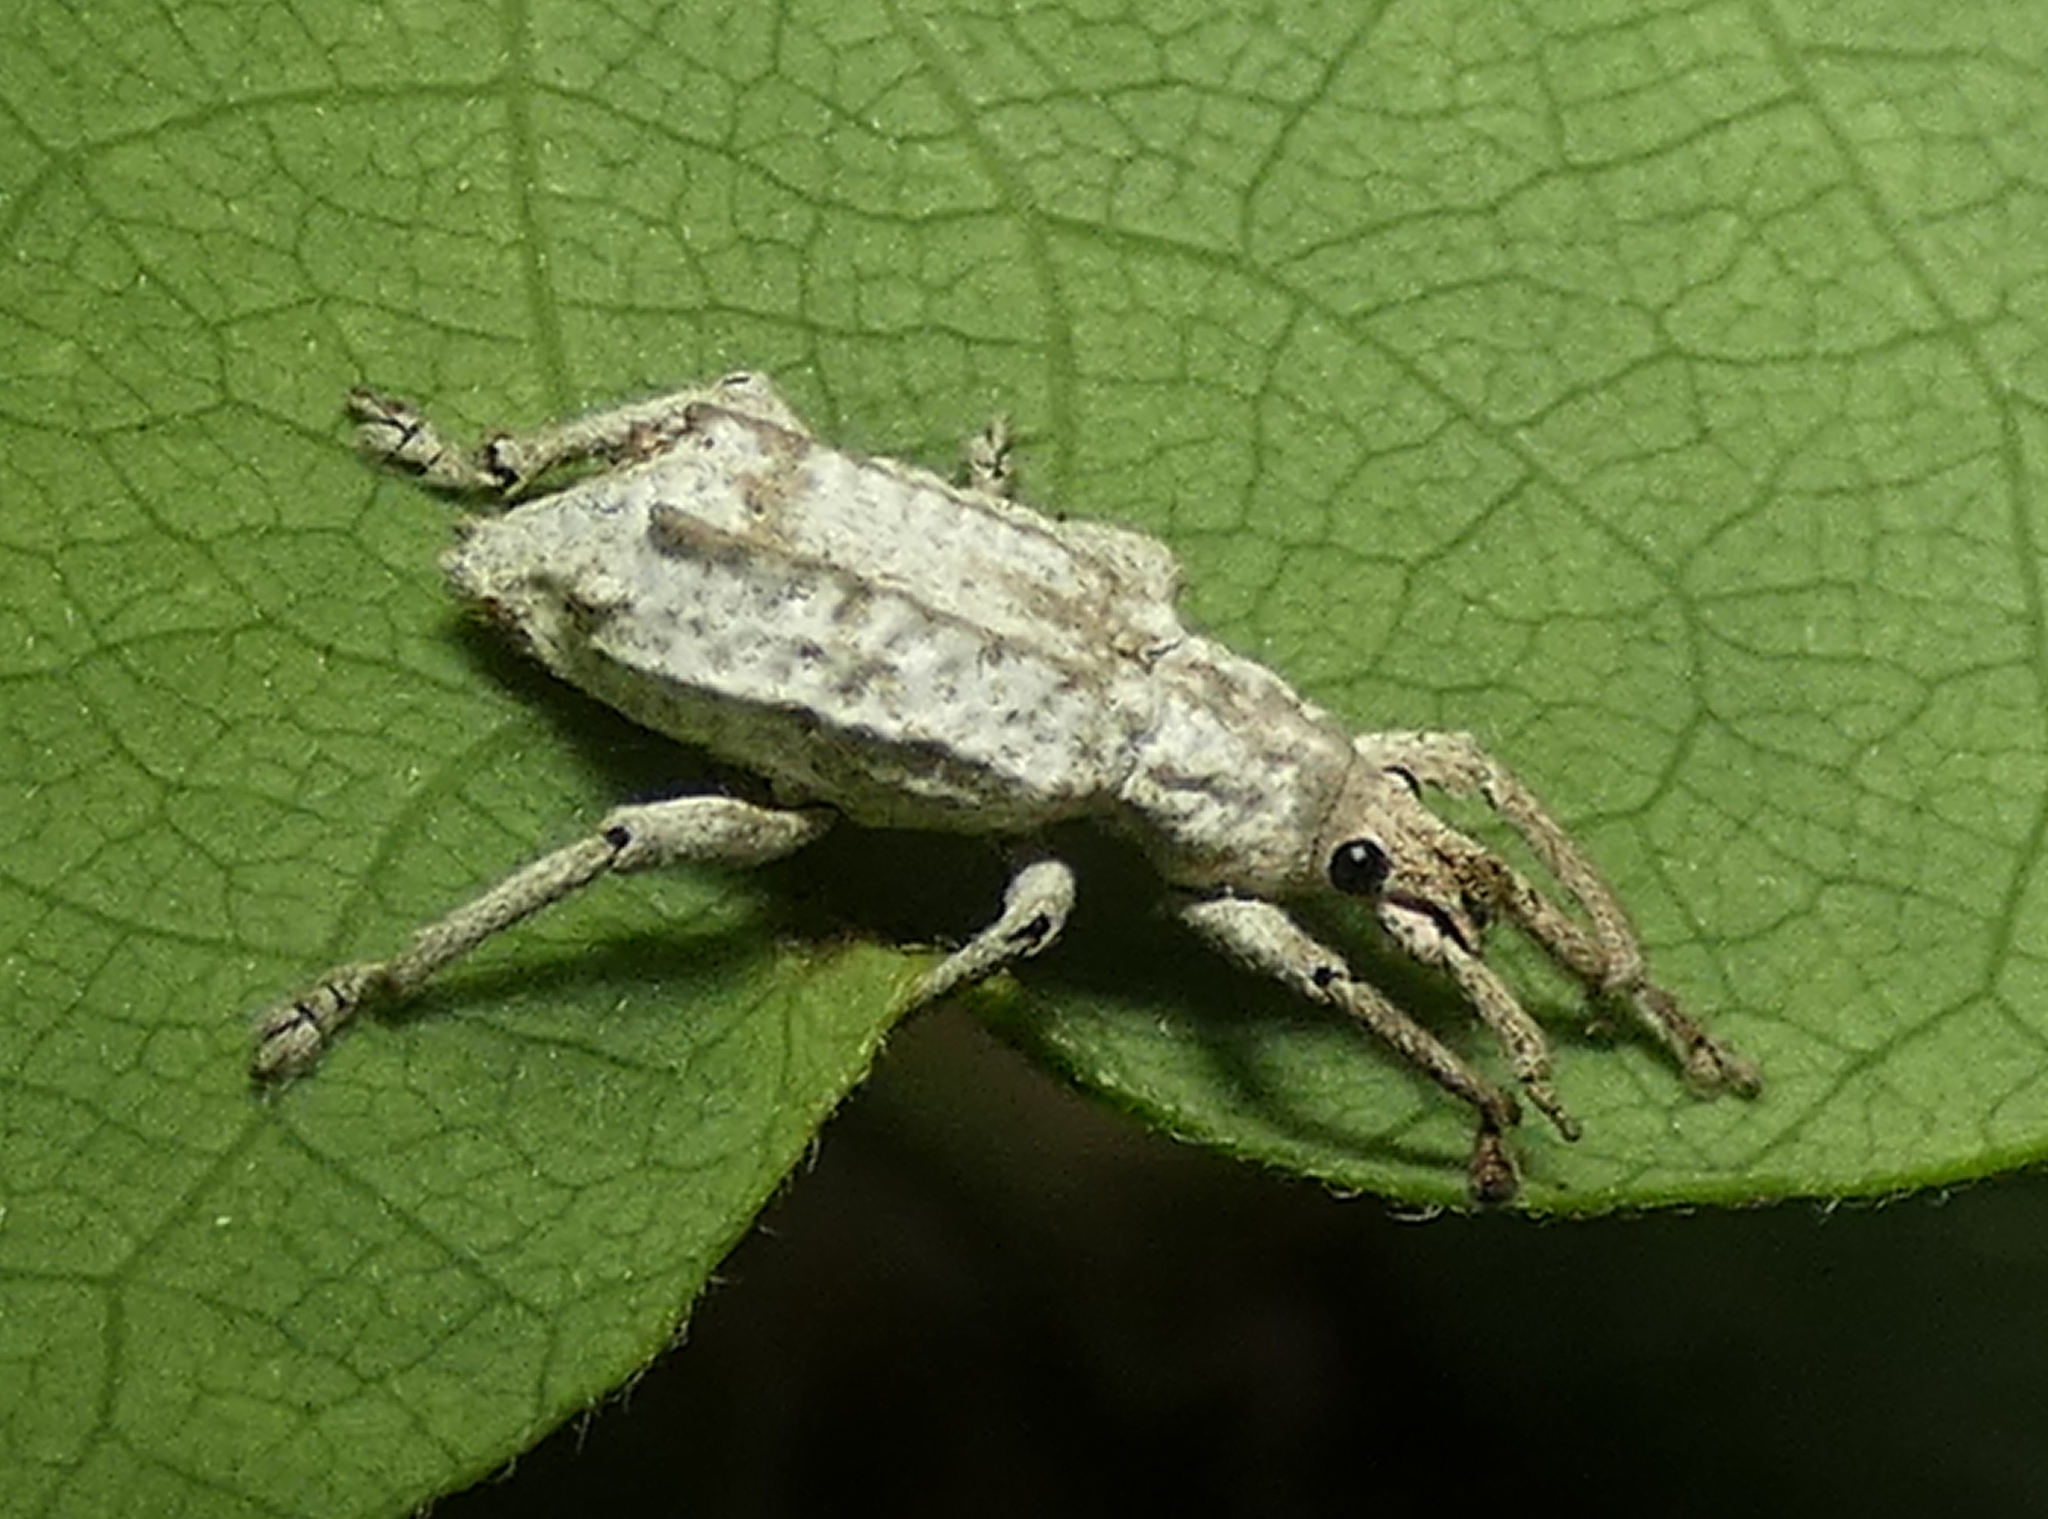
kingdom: Animalia
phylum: Arthropoda
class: Insecta
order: Coleoptera
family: Curculionidae
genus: Compsus
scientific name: Compsus niveus
